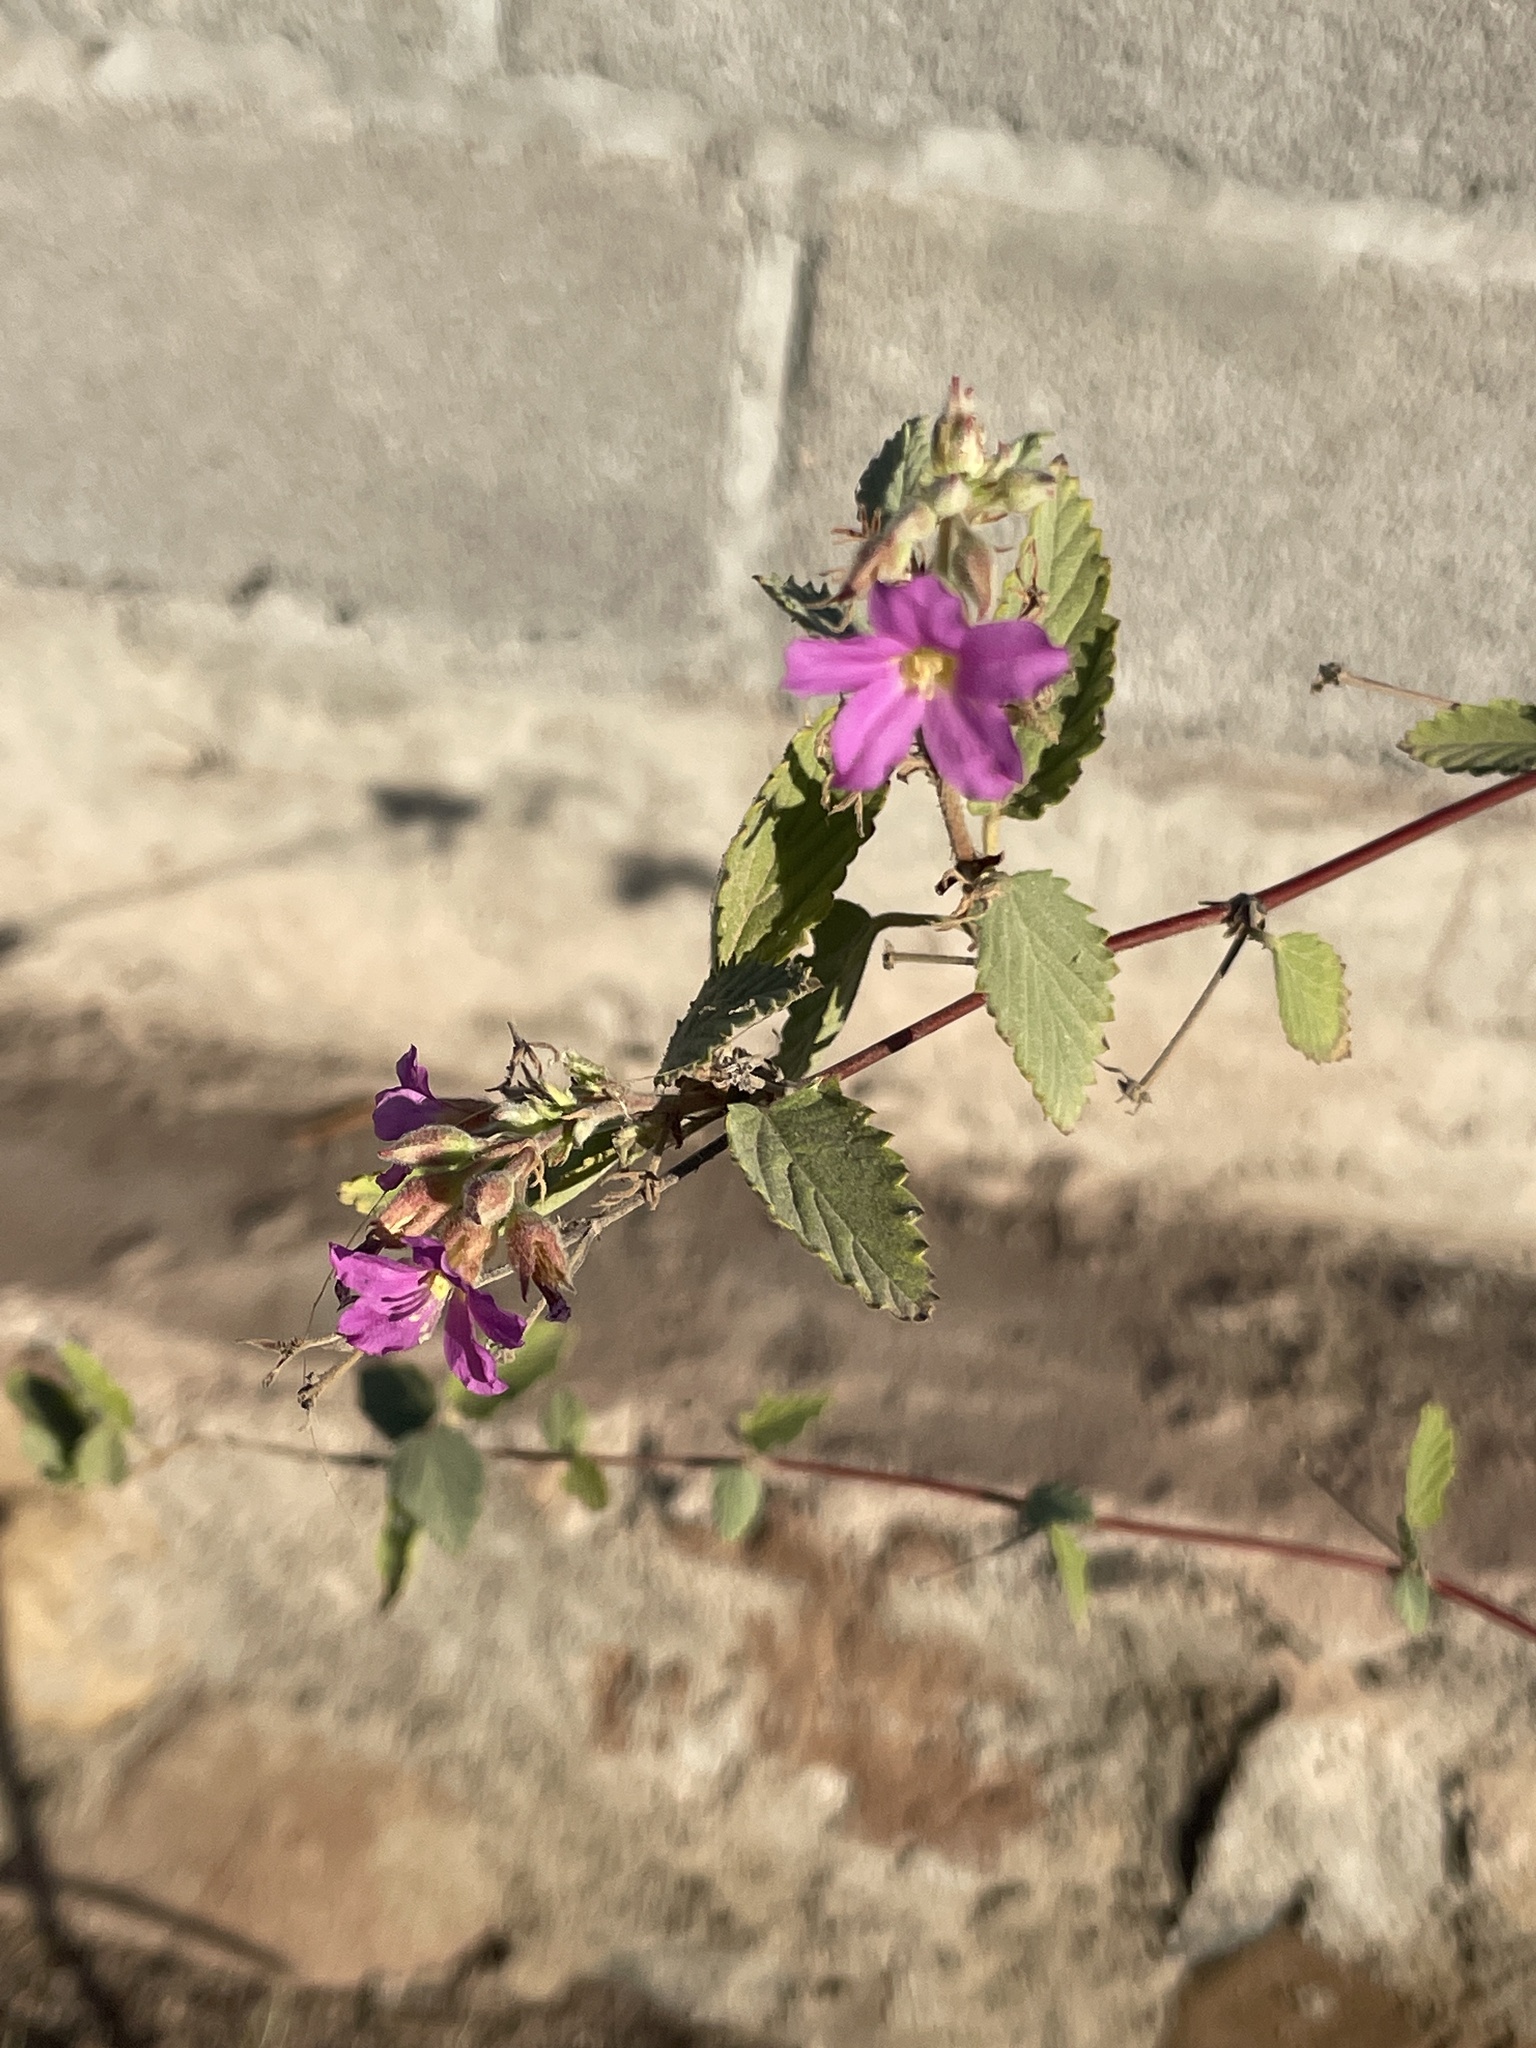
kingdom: Plantae
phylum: Tracheophyta
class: Magnoliopsida
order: Malvales
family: Malvaceae
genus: Melochia
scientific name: Melochia tomentosa
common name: Black torch
